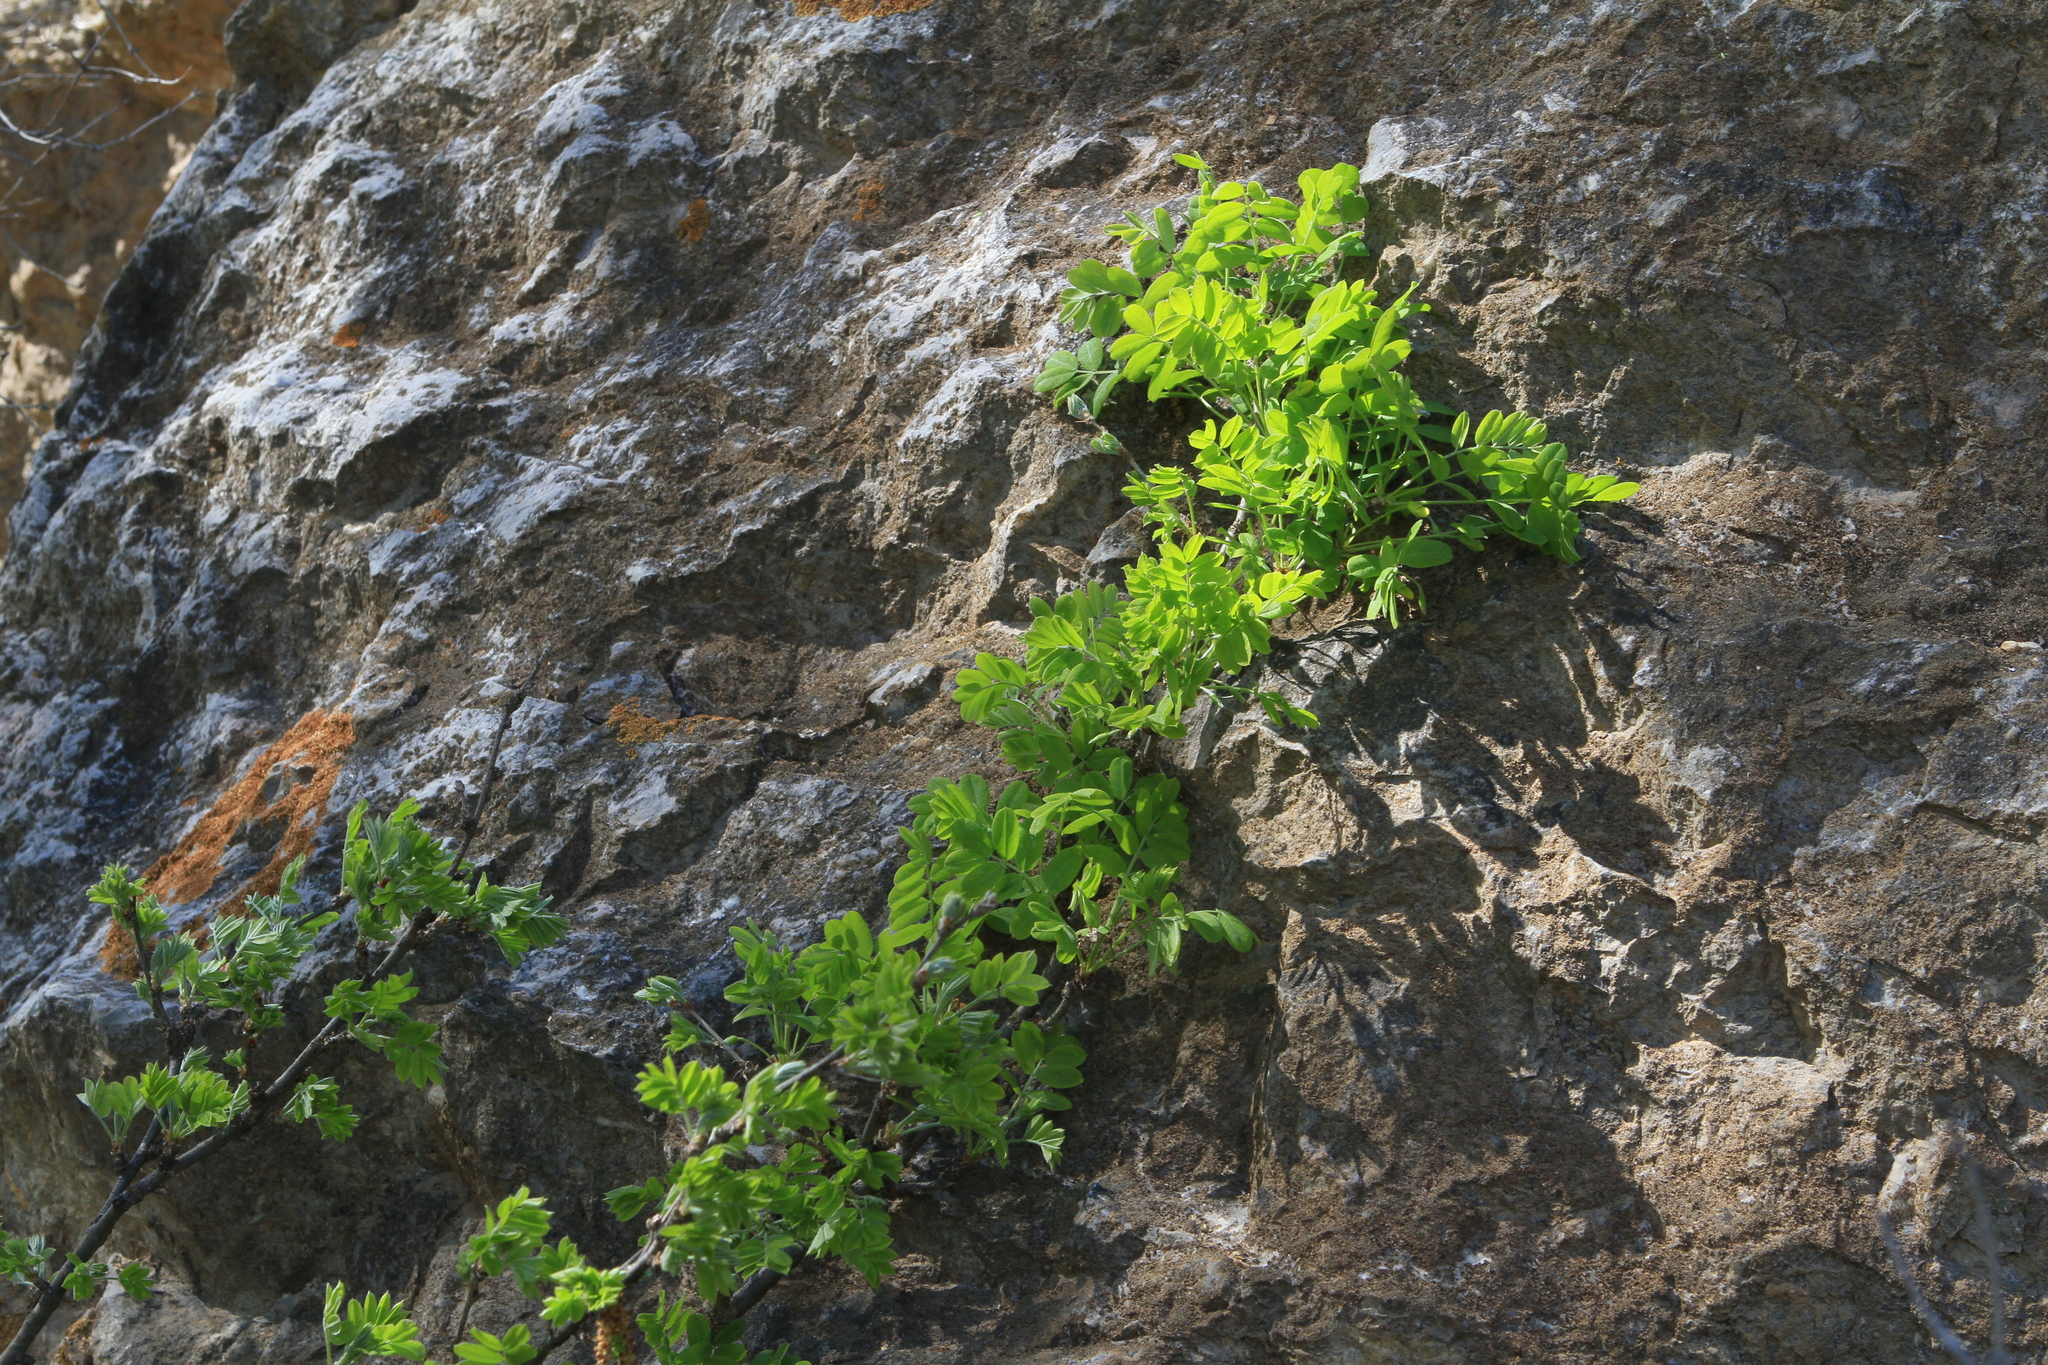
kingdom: Plantae
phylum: Tracheophyta
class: Magnoliopsida
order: Fabales
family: Fabaceae
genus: Caragana
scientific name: Caragana arborescens
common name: Siberian peashrub
